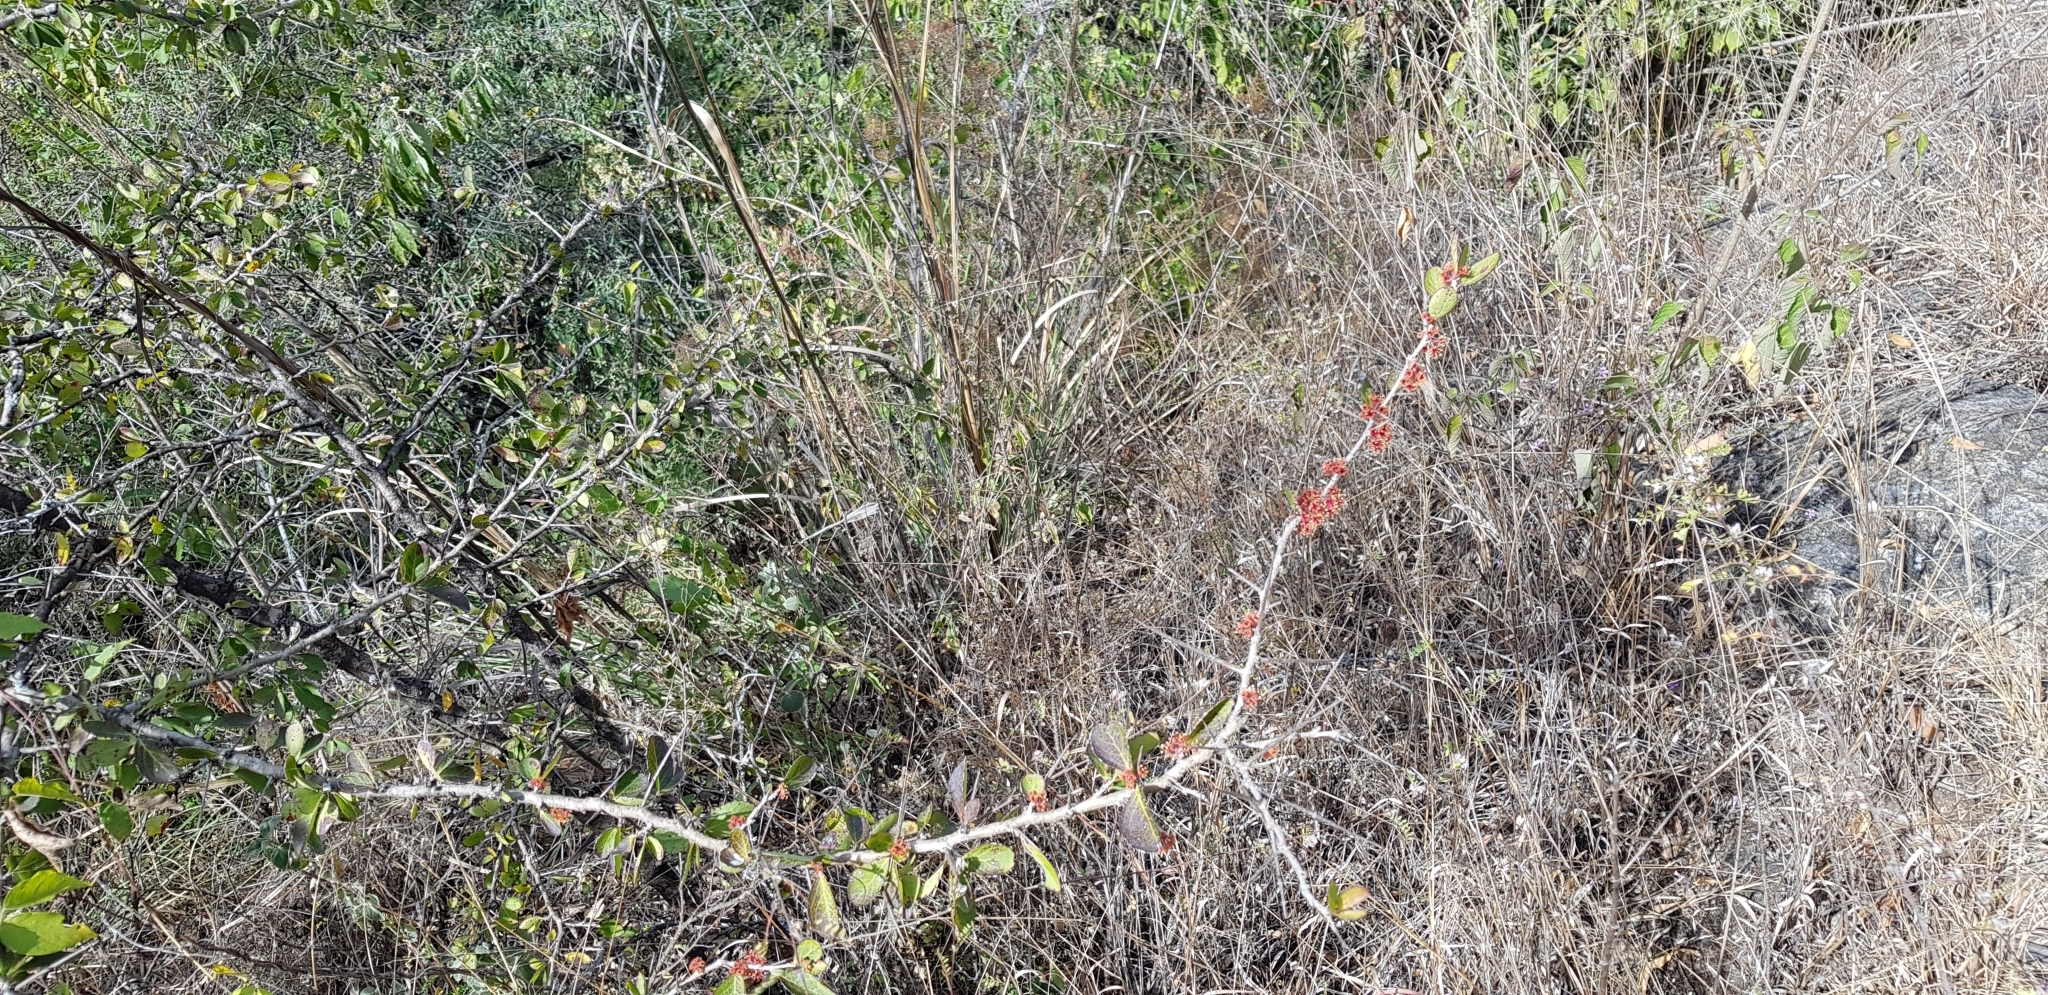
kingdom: Plantae
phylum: Tracheophyta
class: Magnoliopsida
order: Malpighiales
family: Salicaceae
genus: Xylosma
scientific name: Xylosma flexuosa
